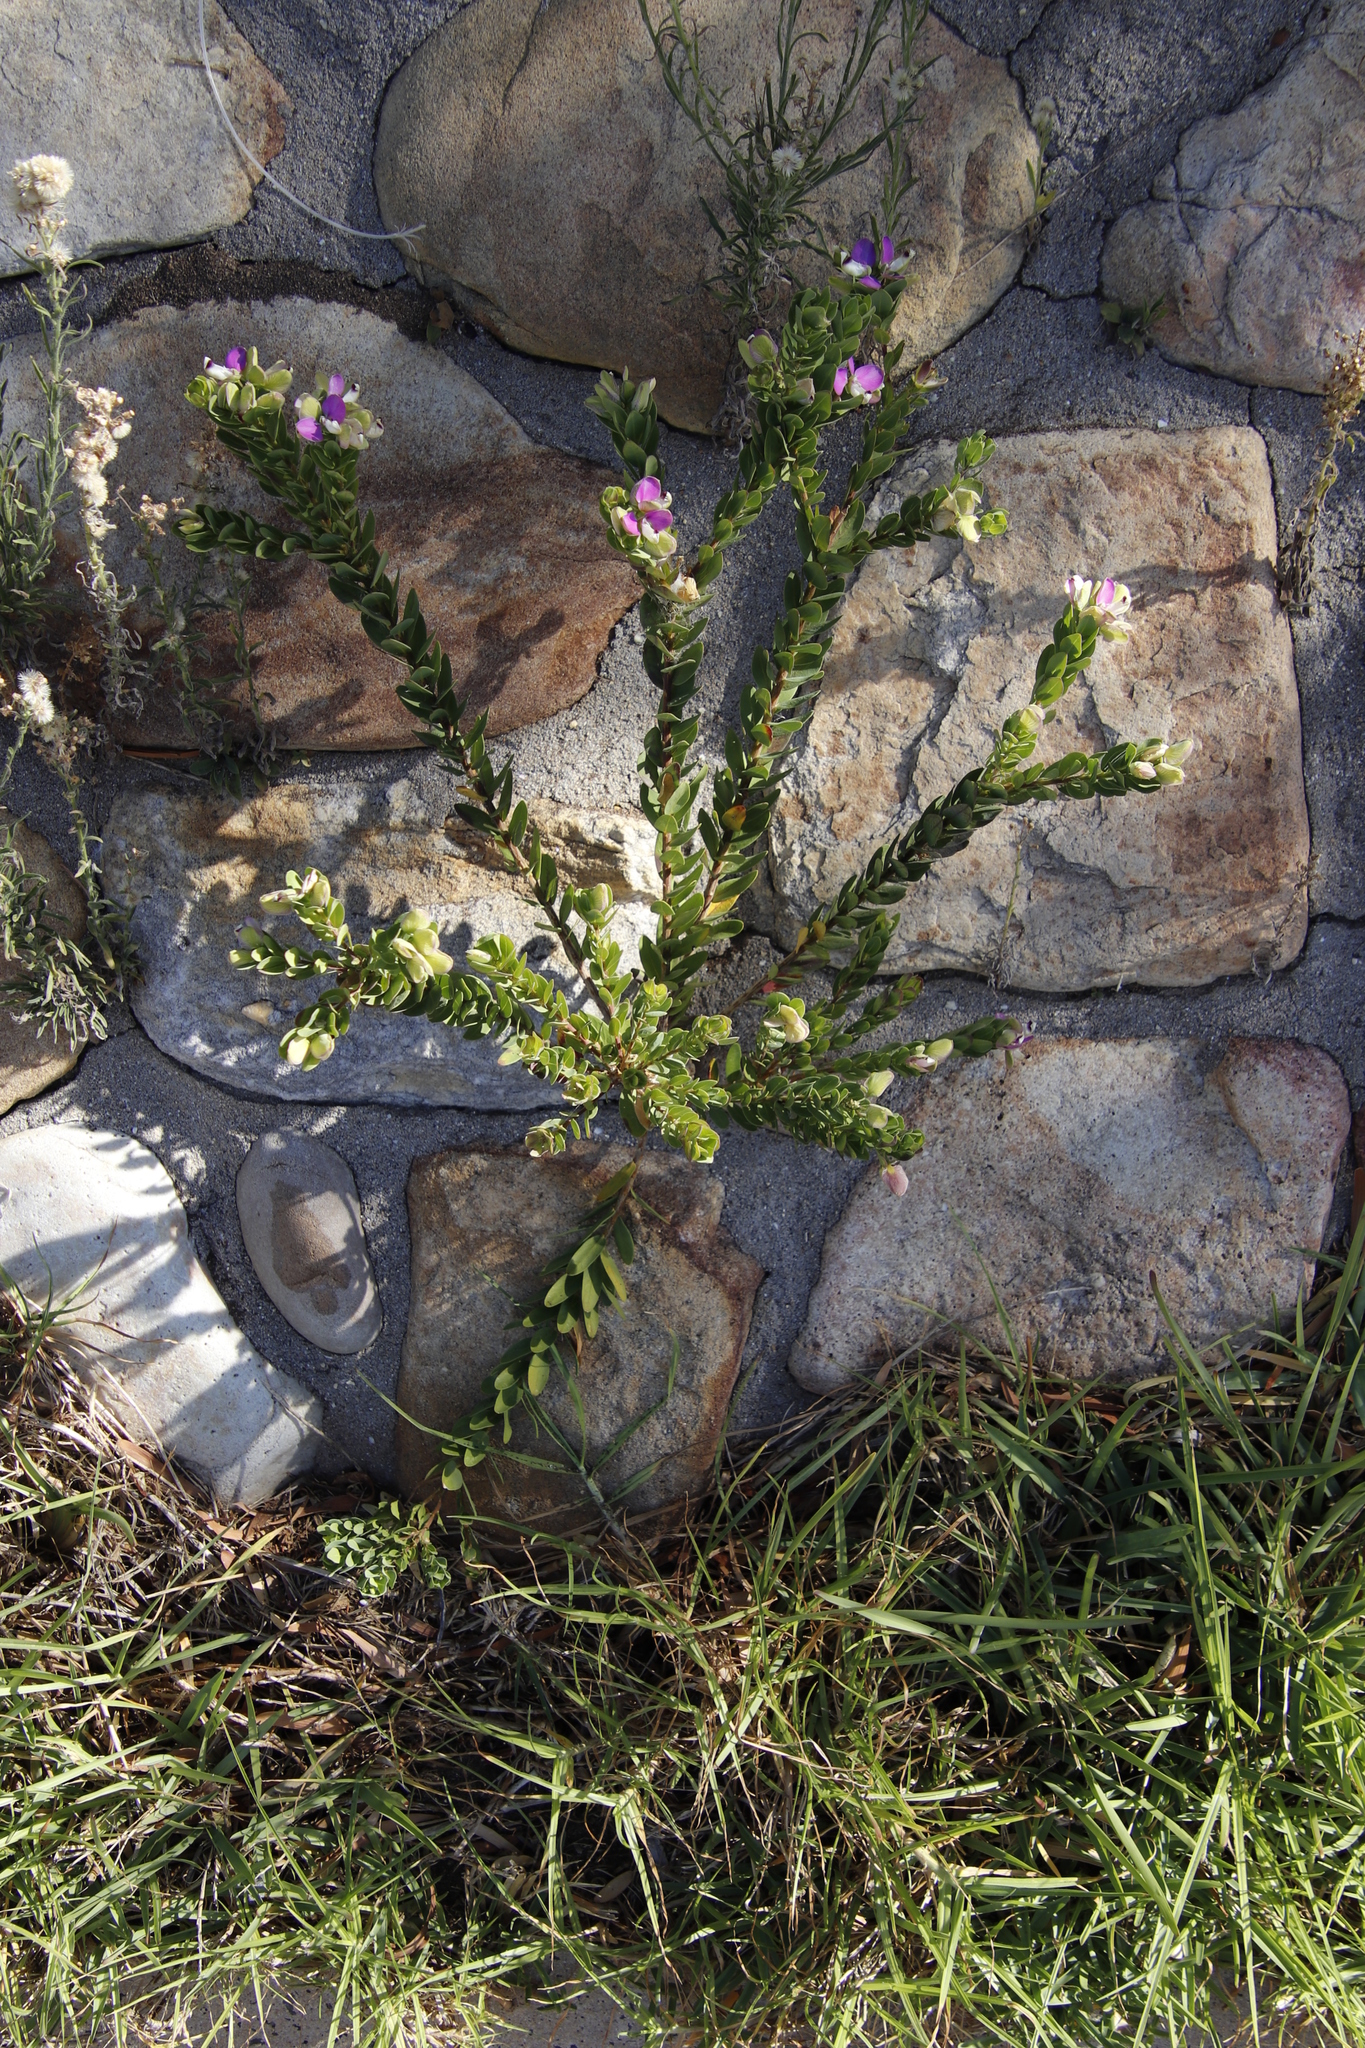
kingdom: Plantae
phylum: Tracheophyta
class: Magnoliopsida
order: Fabales
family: Polygalaceae
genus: Polygala
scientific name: Polygala myrtifolia
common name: Myrtle-leaf milkwort
